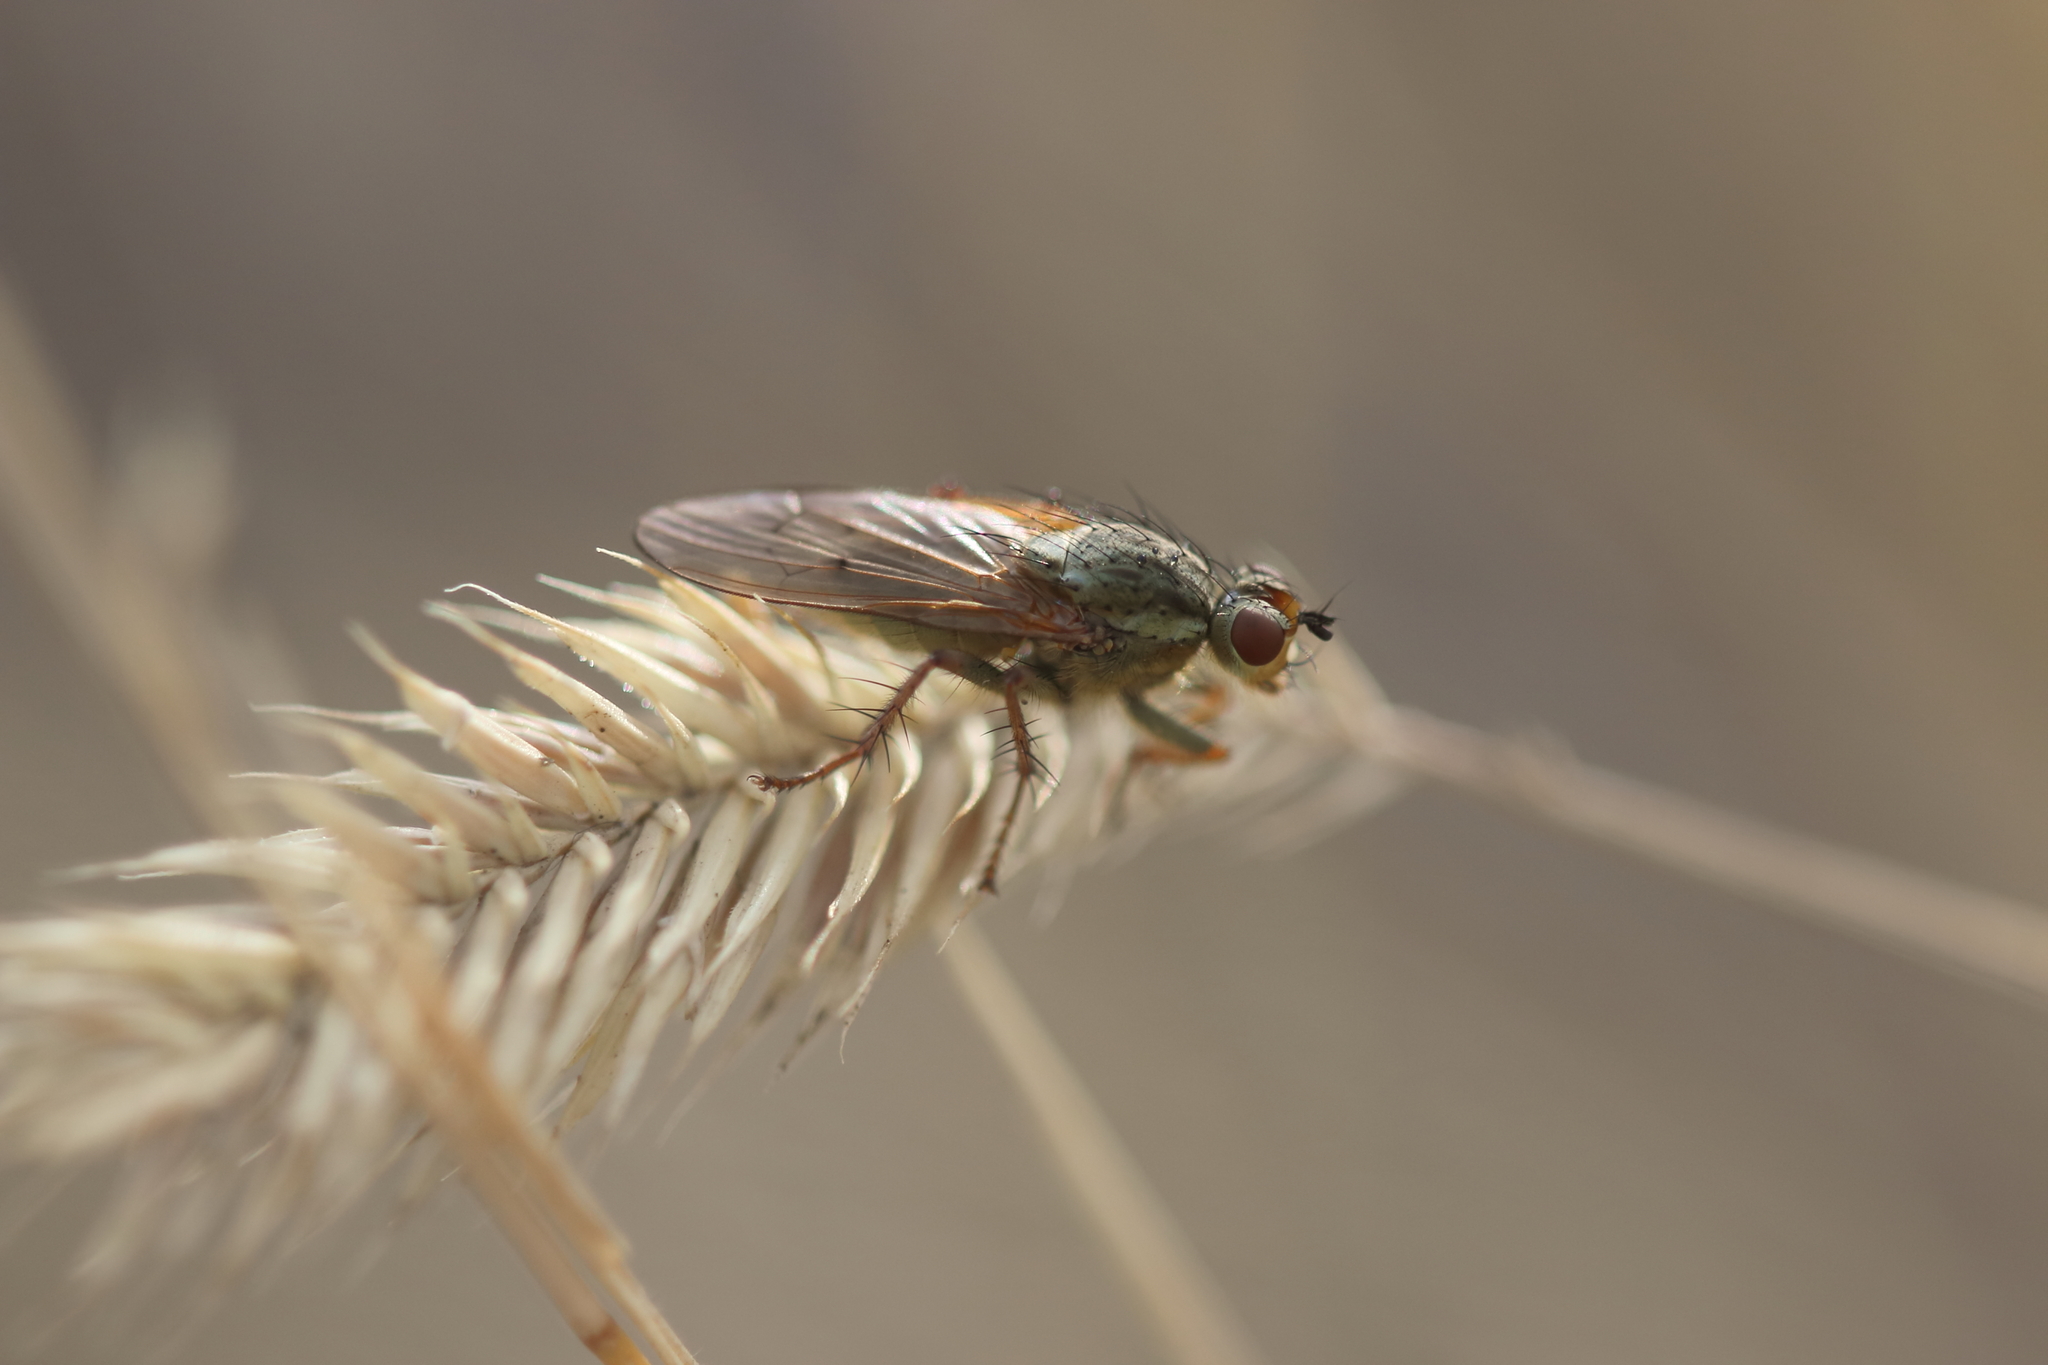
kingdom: Animalia
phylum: Arthropoda
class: Insecta
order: Diptera
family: Scathophagidae
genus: Scathophaga
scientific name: Scathophaga furcata
